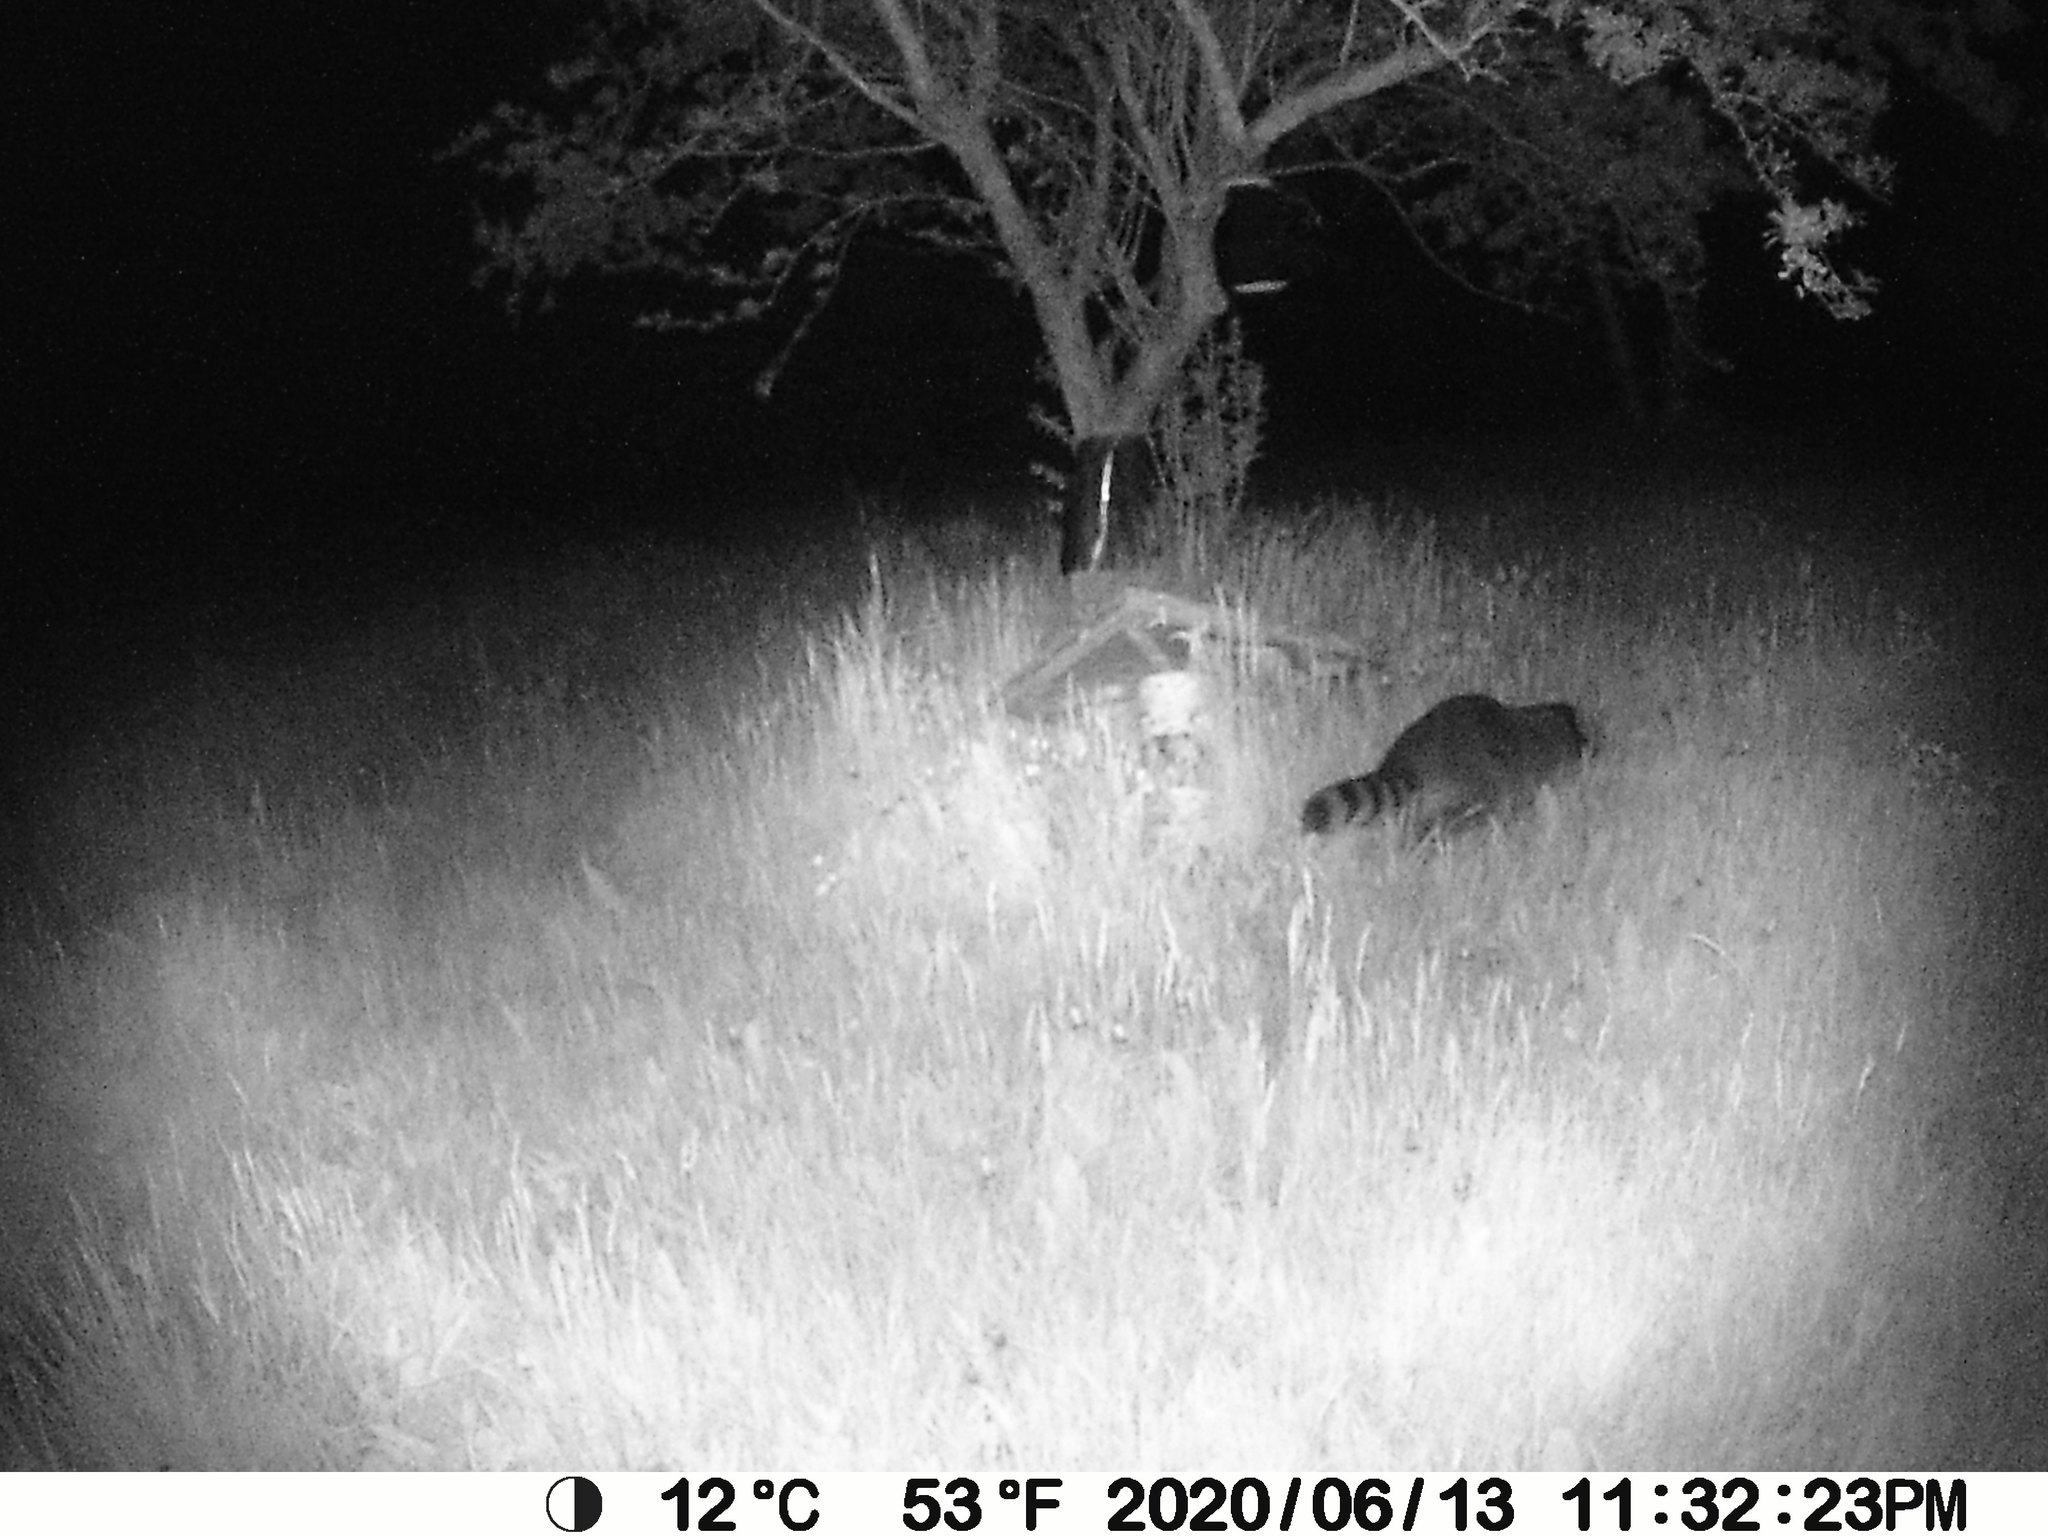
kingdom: Animalia
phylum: Chordata
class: Mammalia
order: Carnivora
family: Procyonidae
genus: Procyon
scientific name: Procyon lotor
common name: Raccoon
